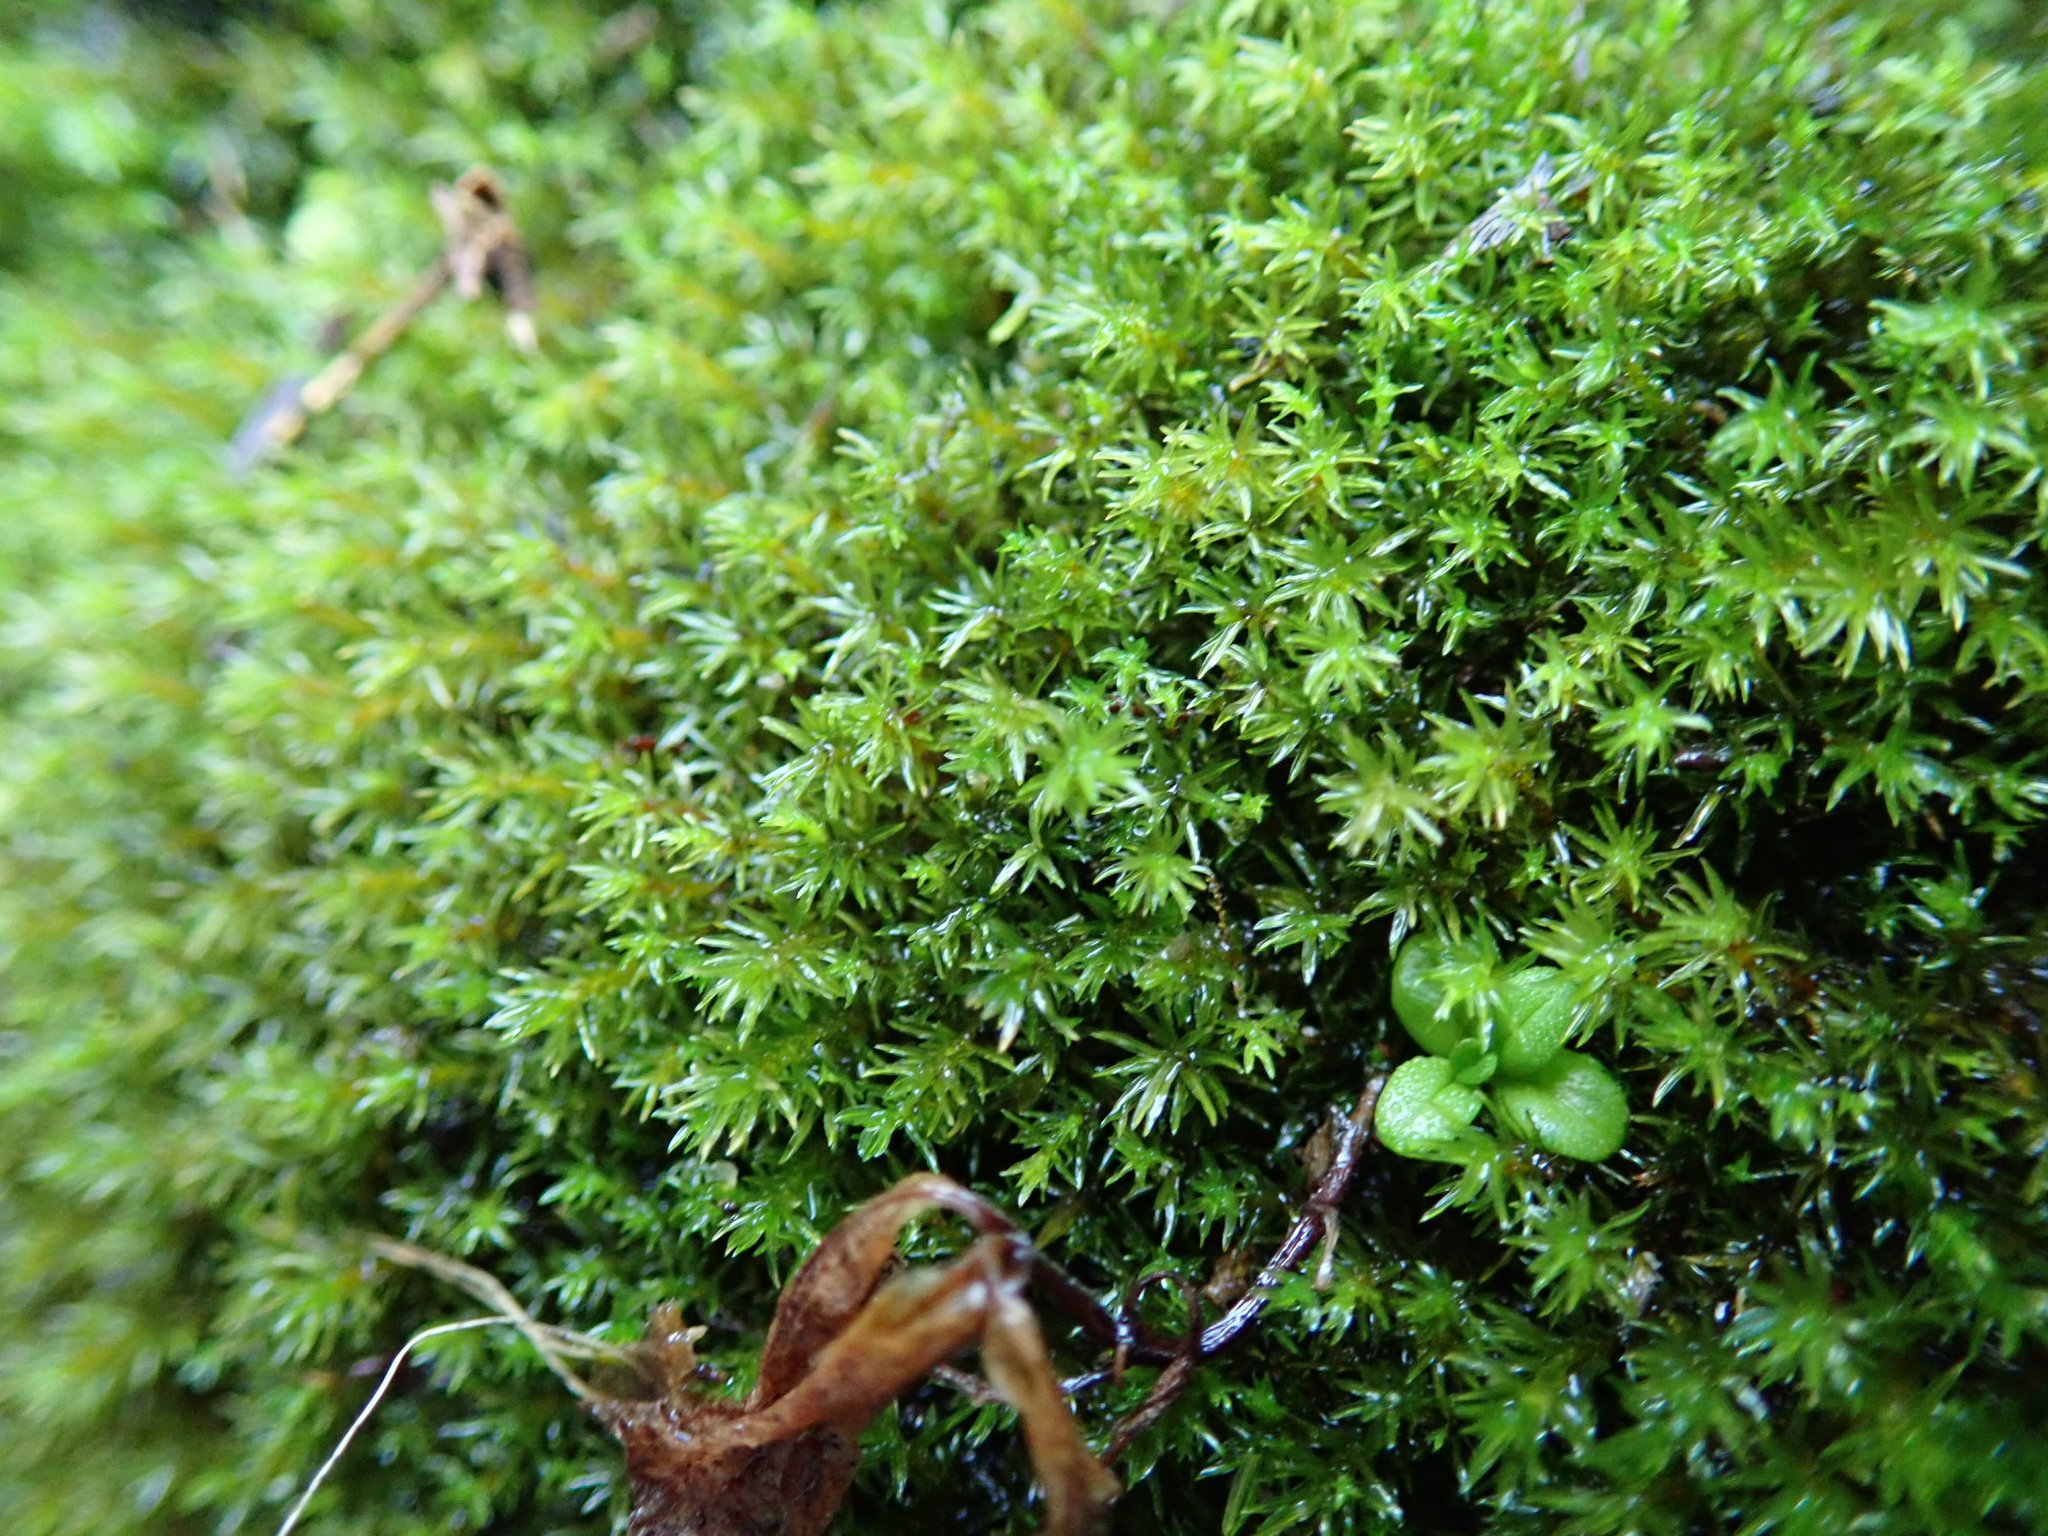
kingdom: Plantae
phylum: Bryophyta
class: Bryopsida
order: Dicranales
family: Aongstroemiaceae
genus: Dichodontium
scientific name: Dichodontium pellucidum
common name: Transparent fork moss
